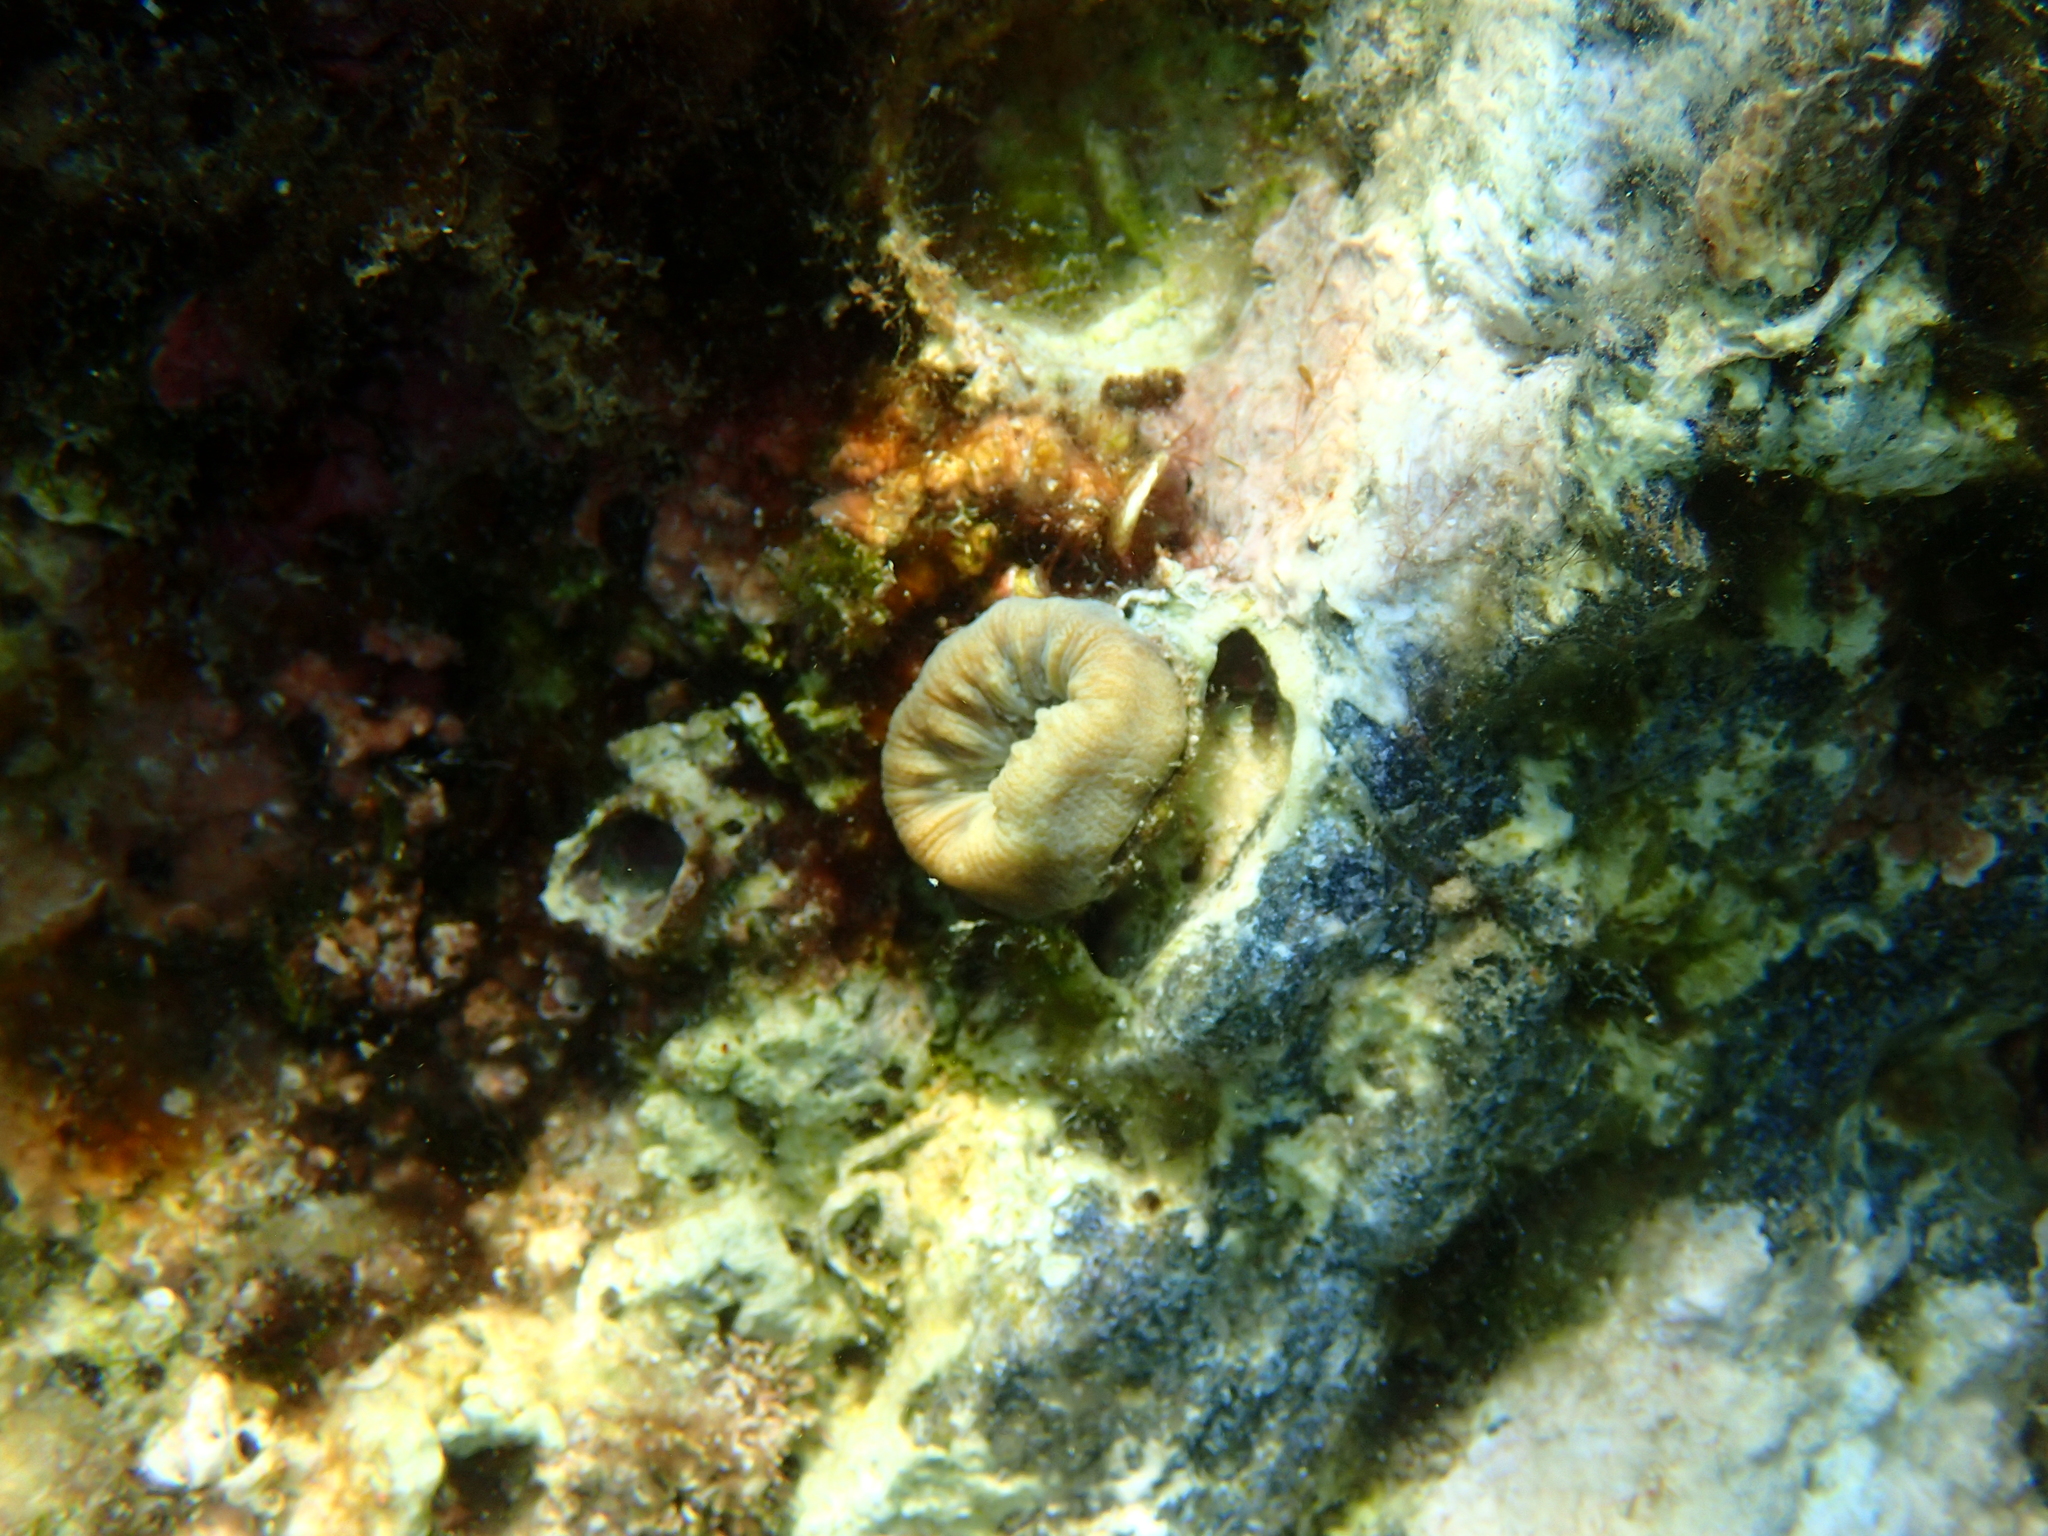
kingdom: Animalia
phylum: Cnidaria
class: Anthozoa
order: Scleractinia
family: Dendrophylliidae
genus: Balanophyllia
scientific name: Balanophyllia europaea
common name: Scarlet coral
